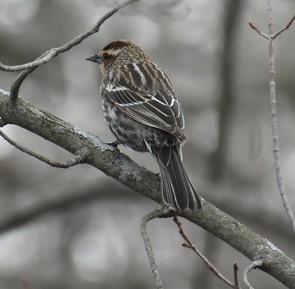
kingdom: Animalia
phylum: Chordata
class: Aves
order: Passeriformes
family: Icteridae
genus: Agelaius
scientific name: Agelaius phoeniceus
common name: Red-winged blackbird
